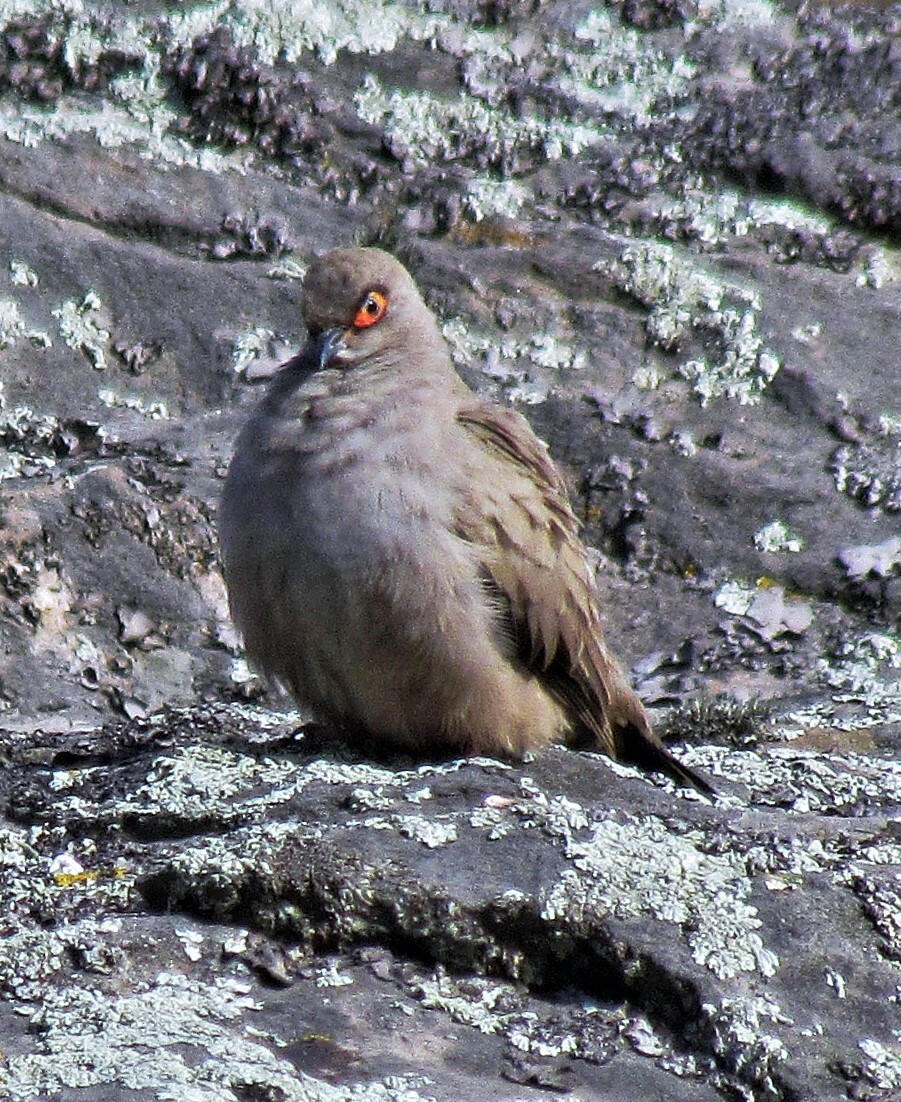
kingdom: Animalia
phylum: Chordata
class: Aves
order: Columbiformes
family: Columbidae
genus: Metriopelia
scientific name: Metriopelia morenoi
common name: Moreno's ground dove
